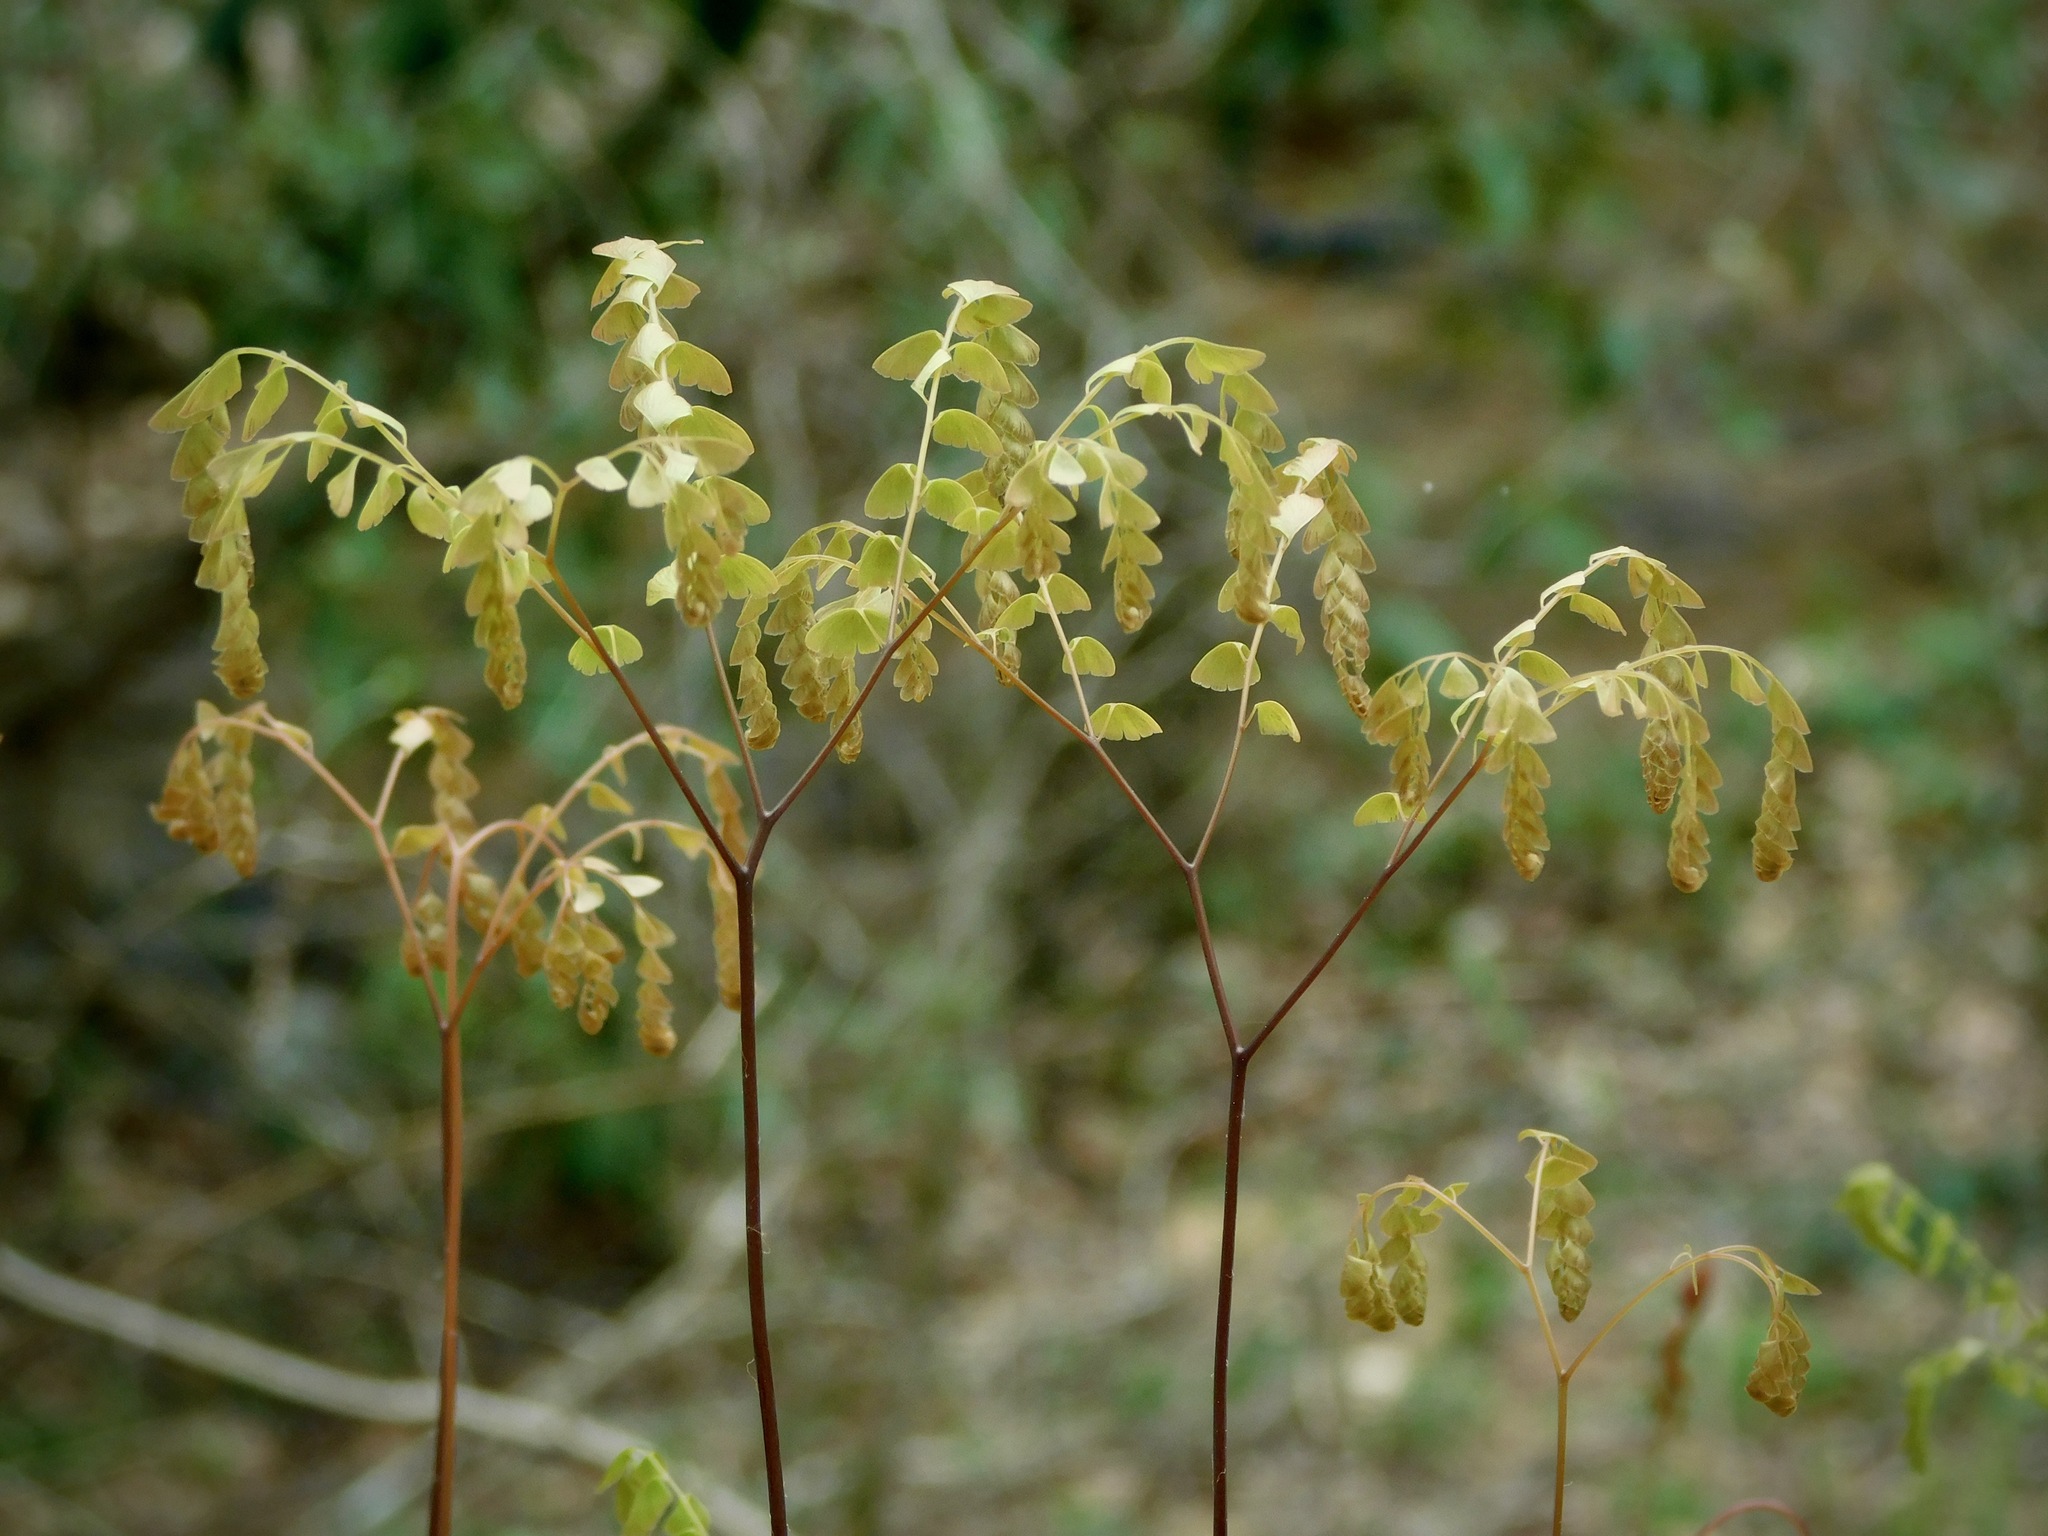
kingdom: Plantae
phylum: Tracheophyta
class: Polypodiopsida
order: Polypodiales
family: Pteridaceae
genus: Adiantum
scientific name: Adiantum pedatum
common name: Five-finger fern
